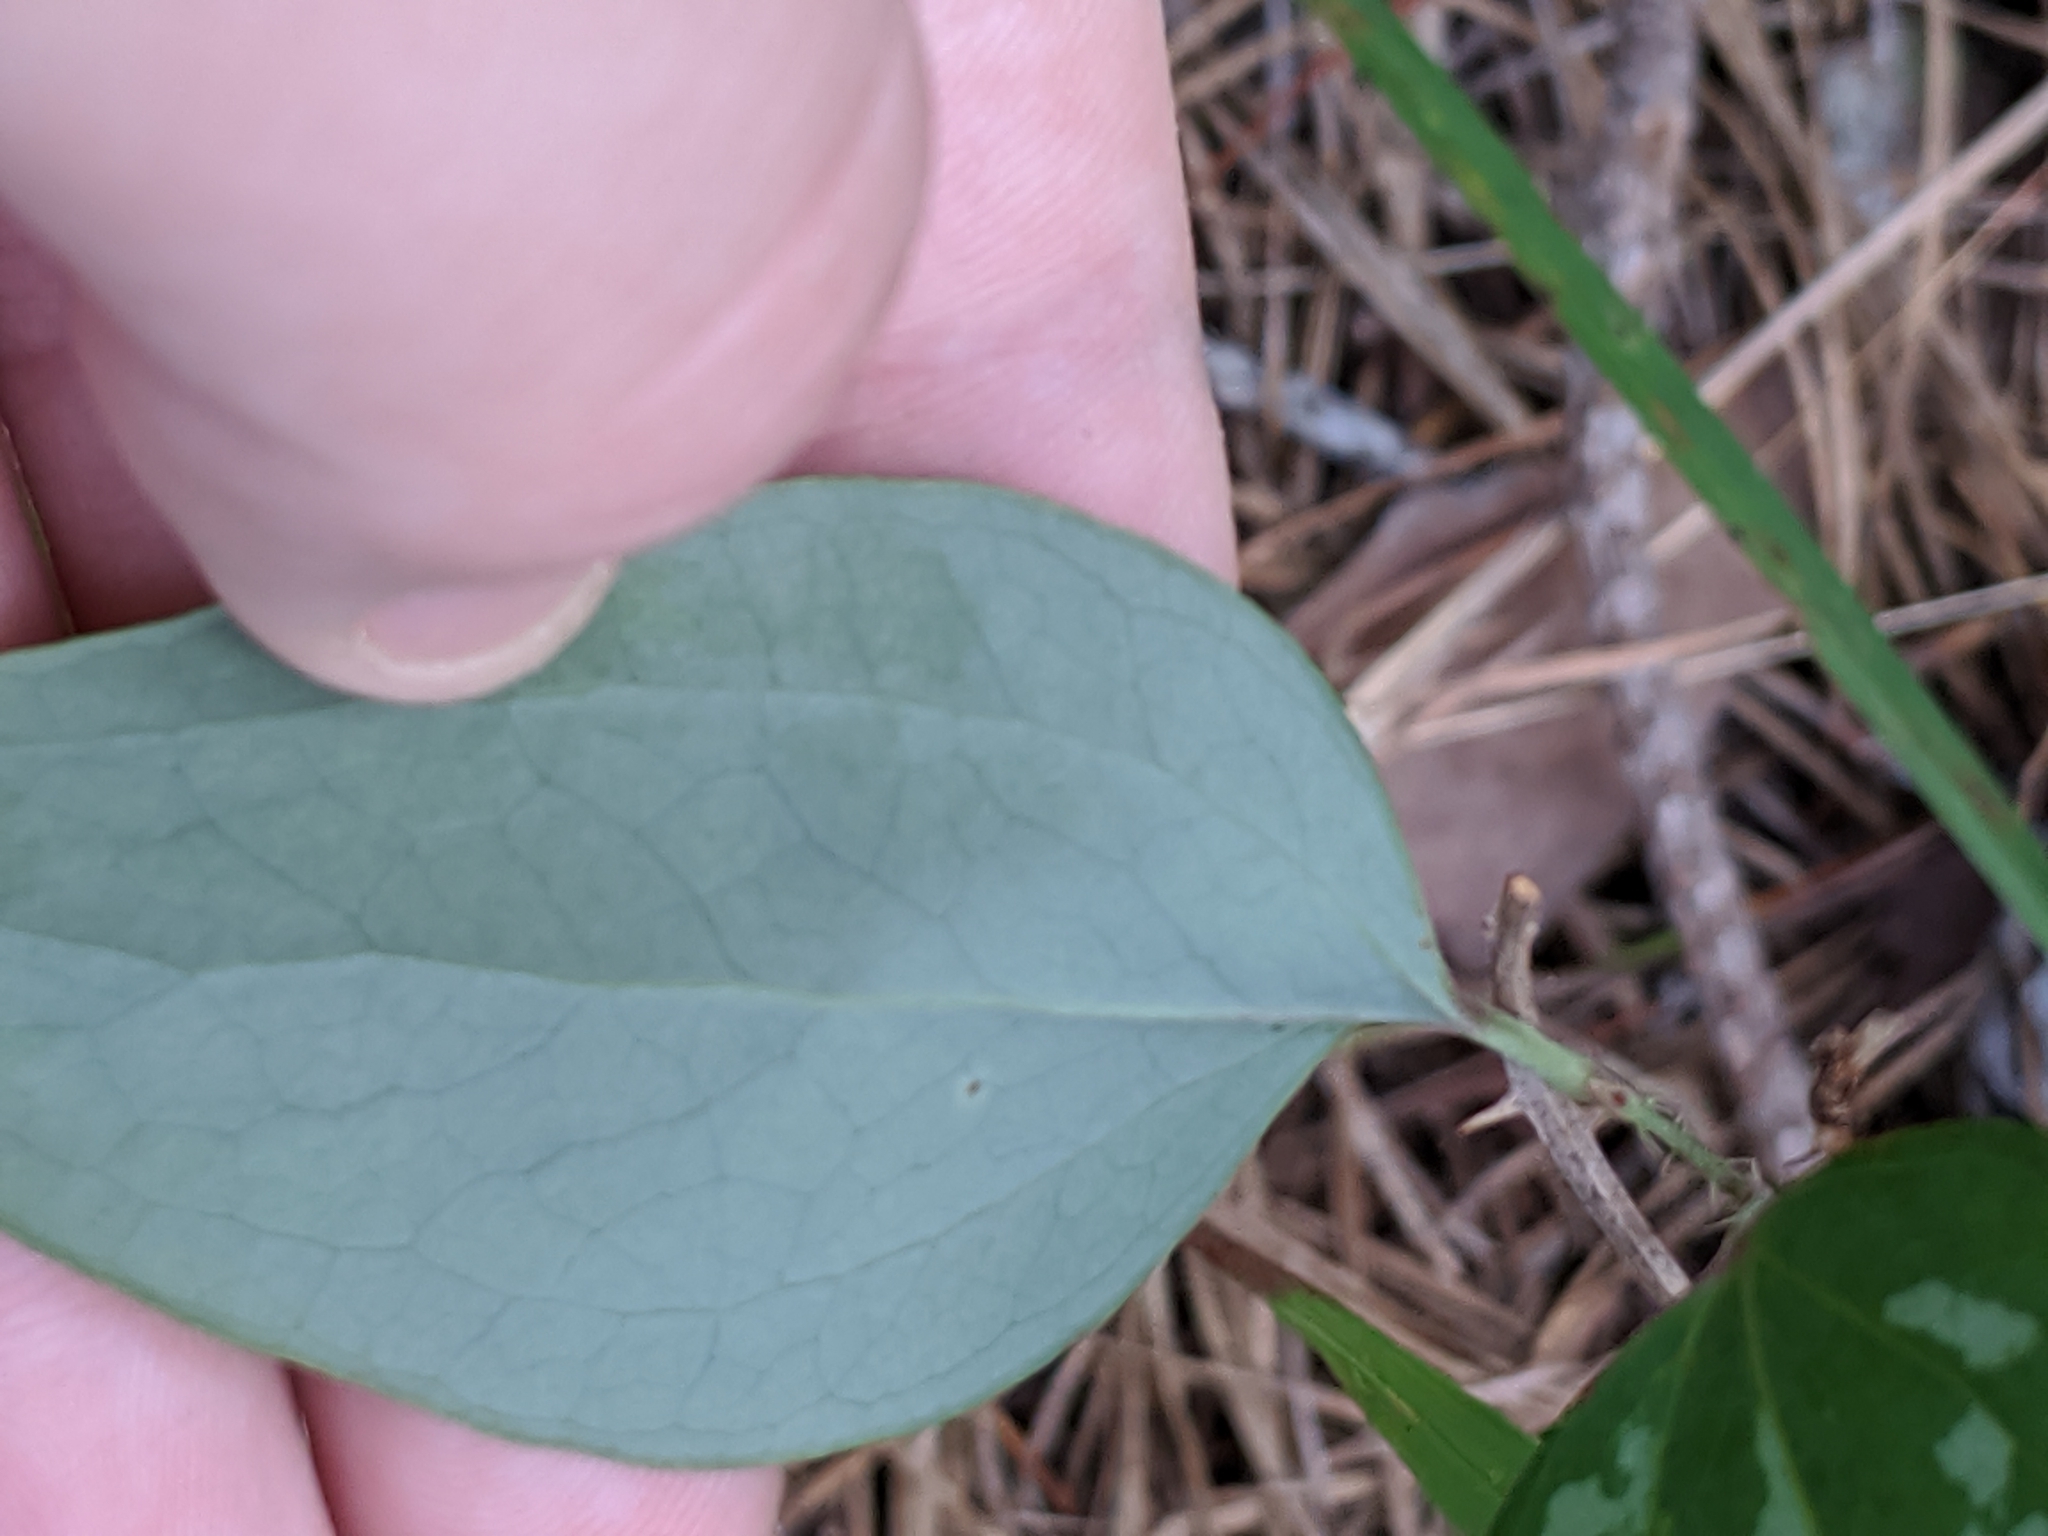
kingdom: Plantae
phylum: Tracheophyta
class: Liliopsida
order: Liliales
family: Smilacaceae
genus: Smilax
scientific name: Smilax glauca
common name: Cat greenbrier
